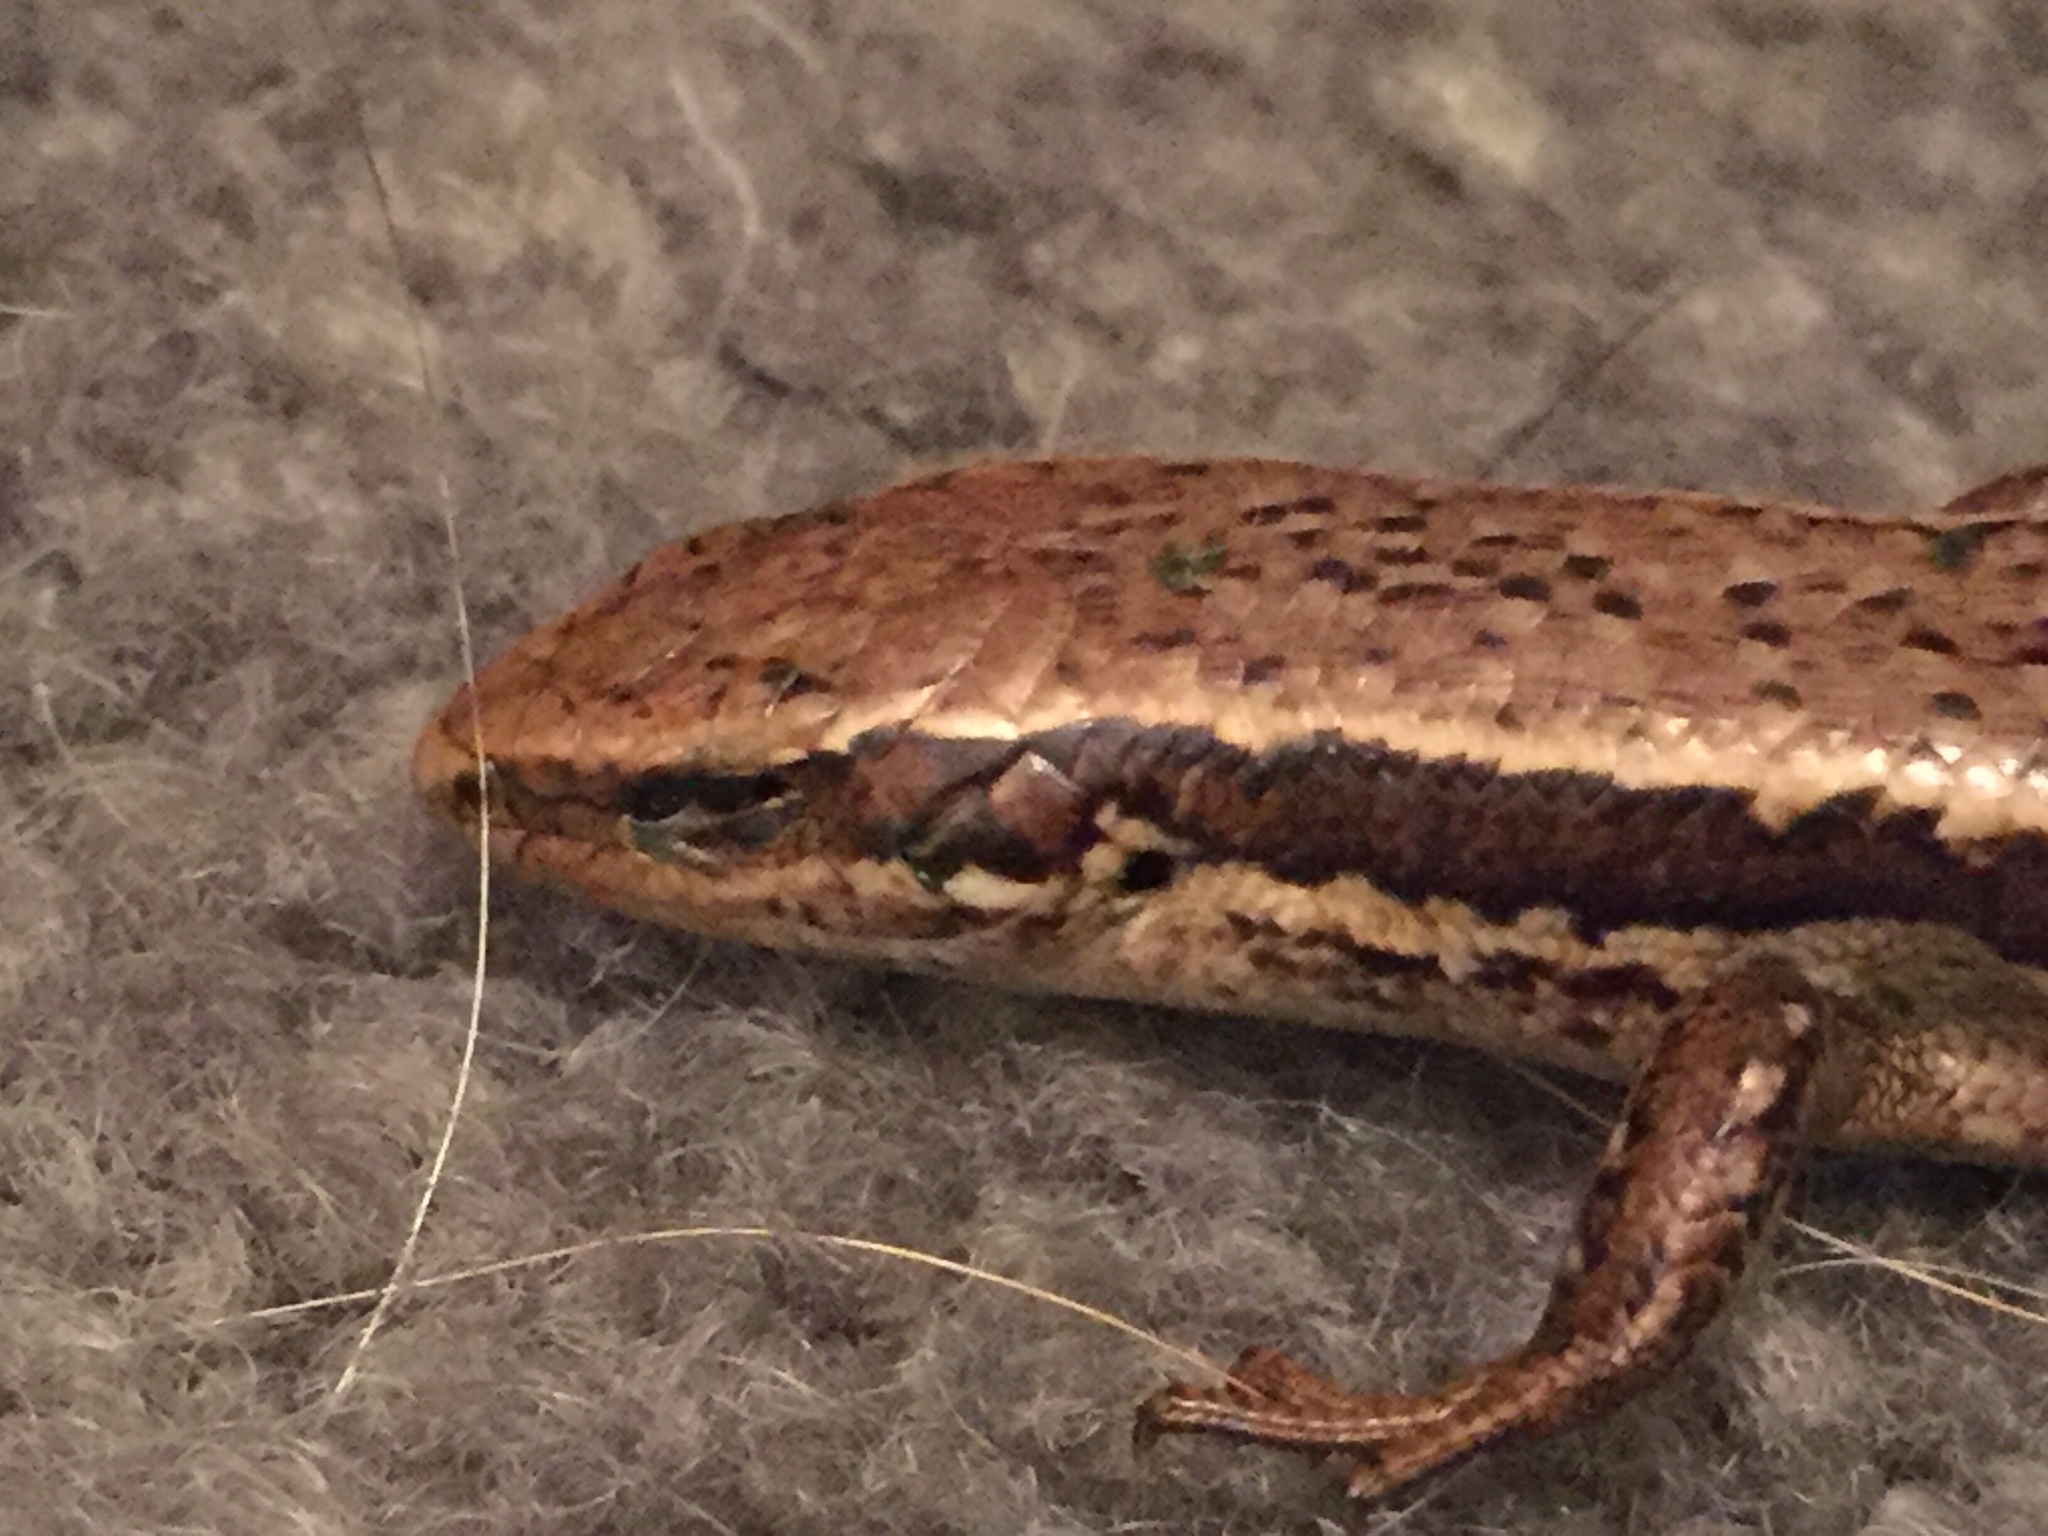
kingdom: Animalia
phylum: Chordata
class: Squamata
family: Scincidae
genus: Oligosoma
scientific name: Oligosoma polychroma
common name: Common new zealand skink
